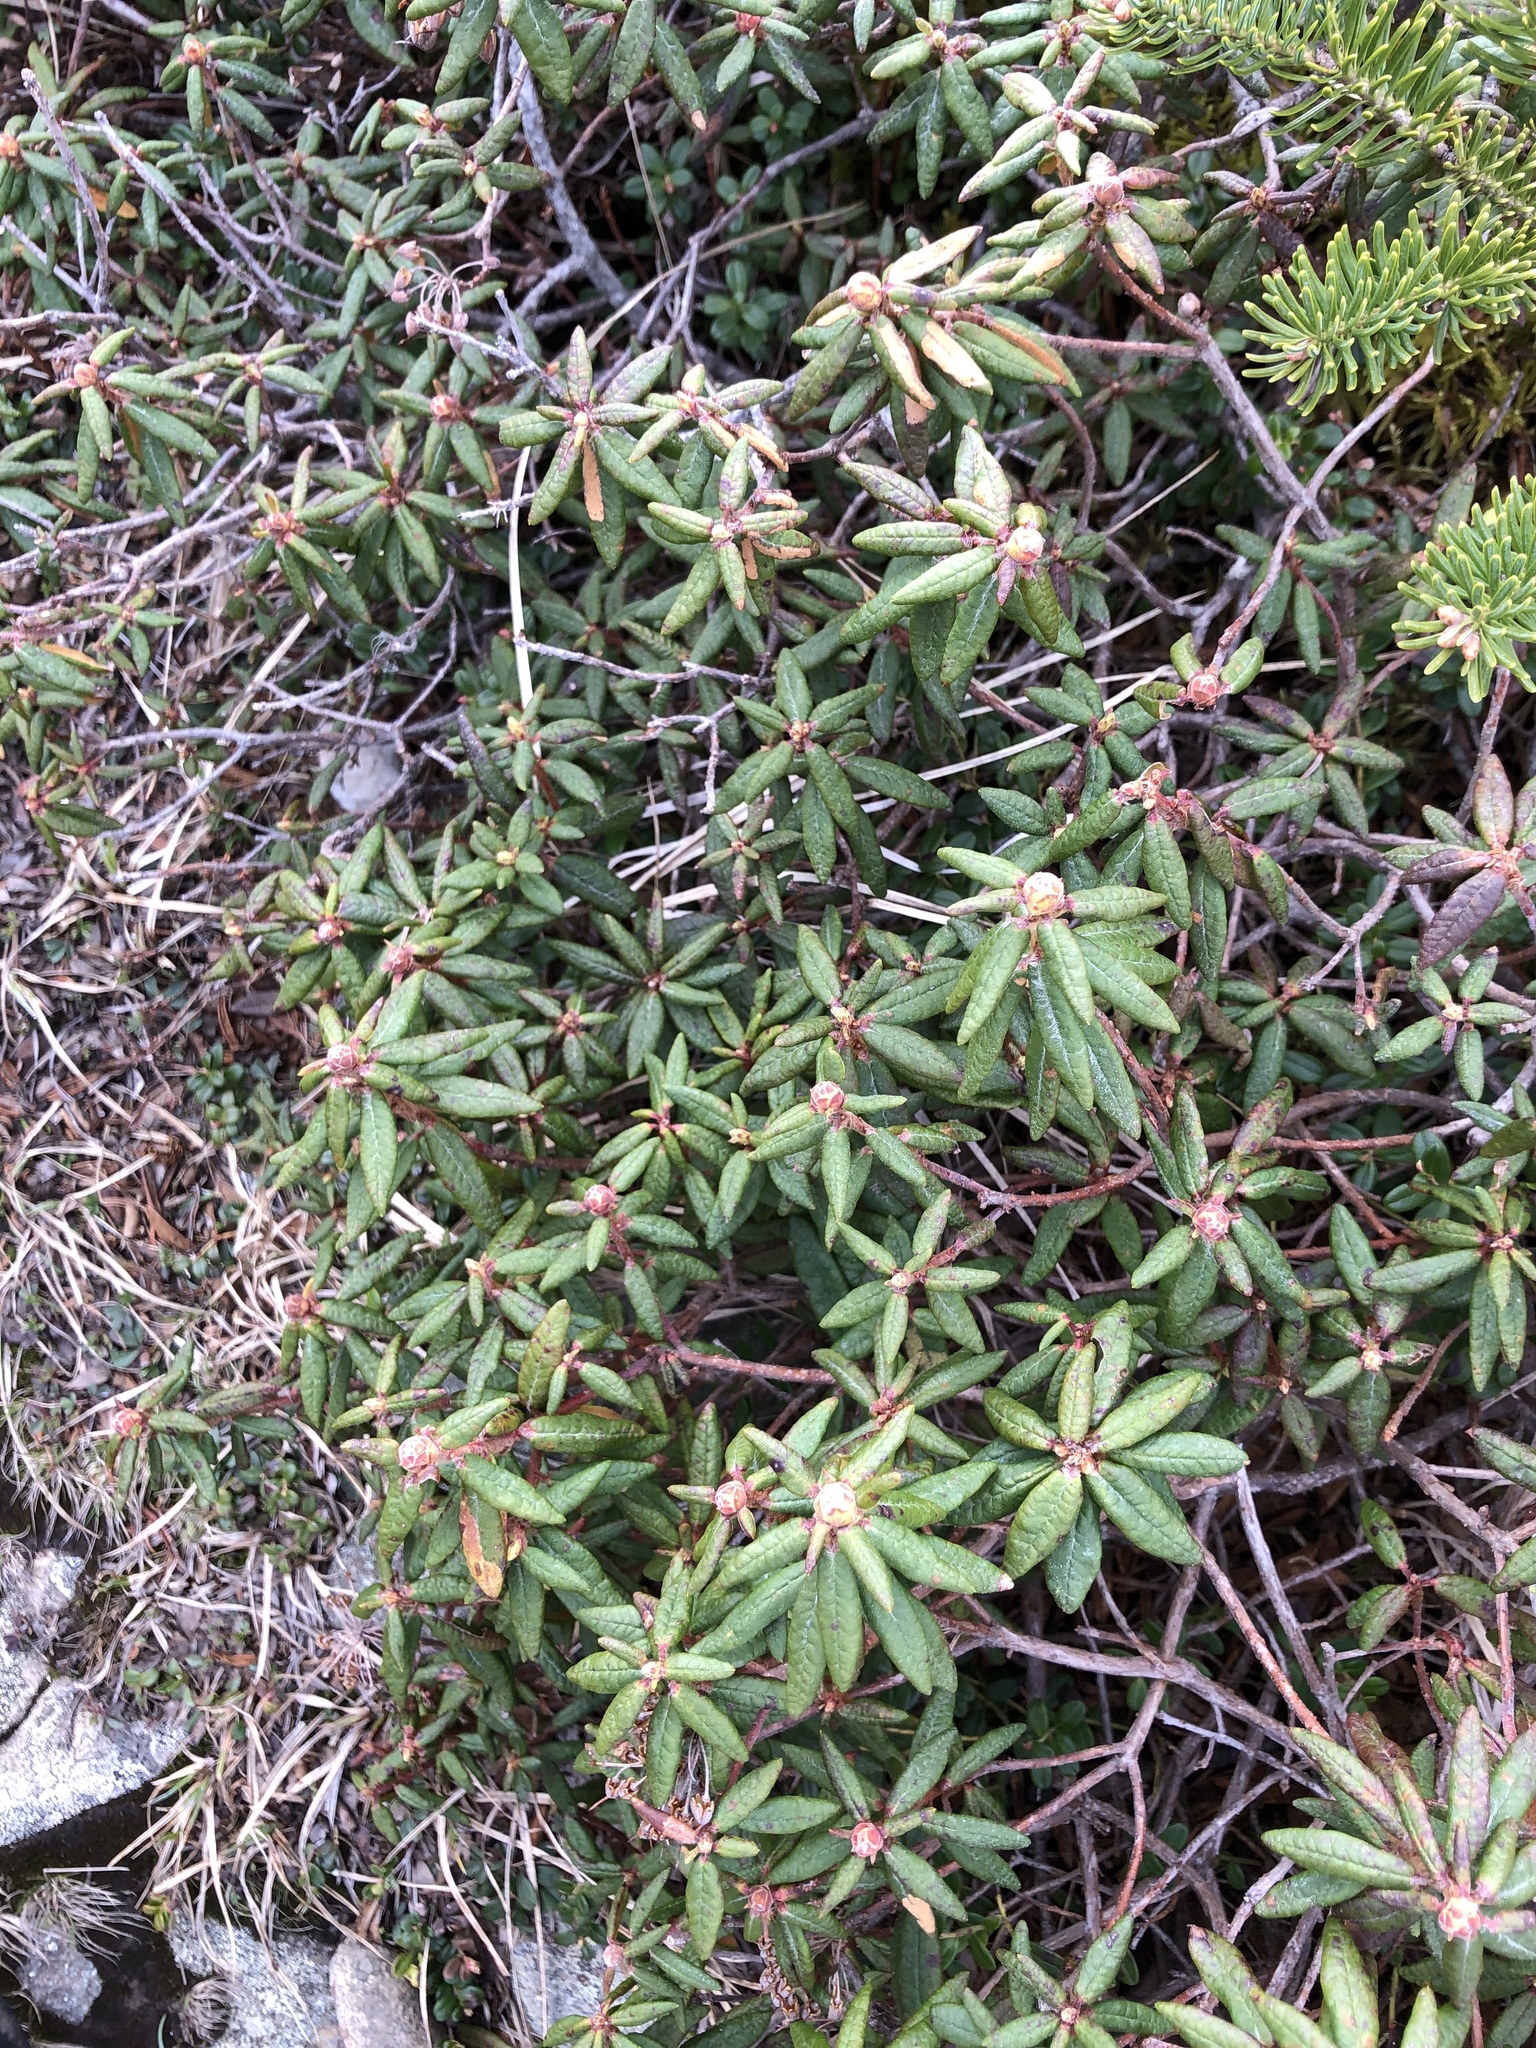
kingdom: Plantae
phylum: Tracheophyta
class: Magnoliopsida
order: Ericales
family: Ericaceae
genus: Rhododendron
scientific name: Rhododendron groenlandicum
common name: Bog labrador tea
